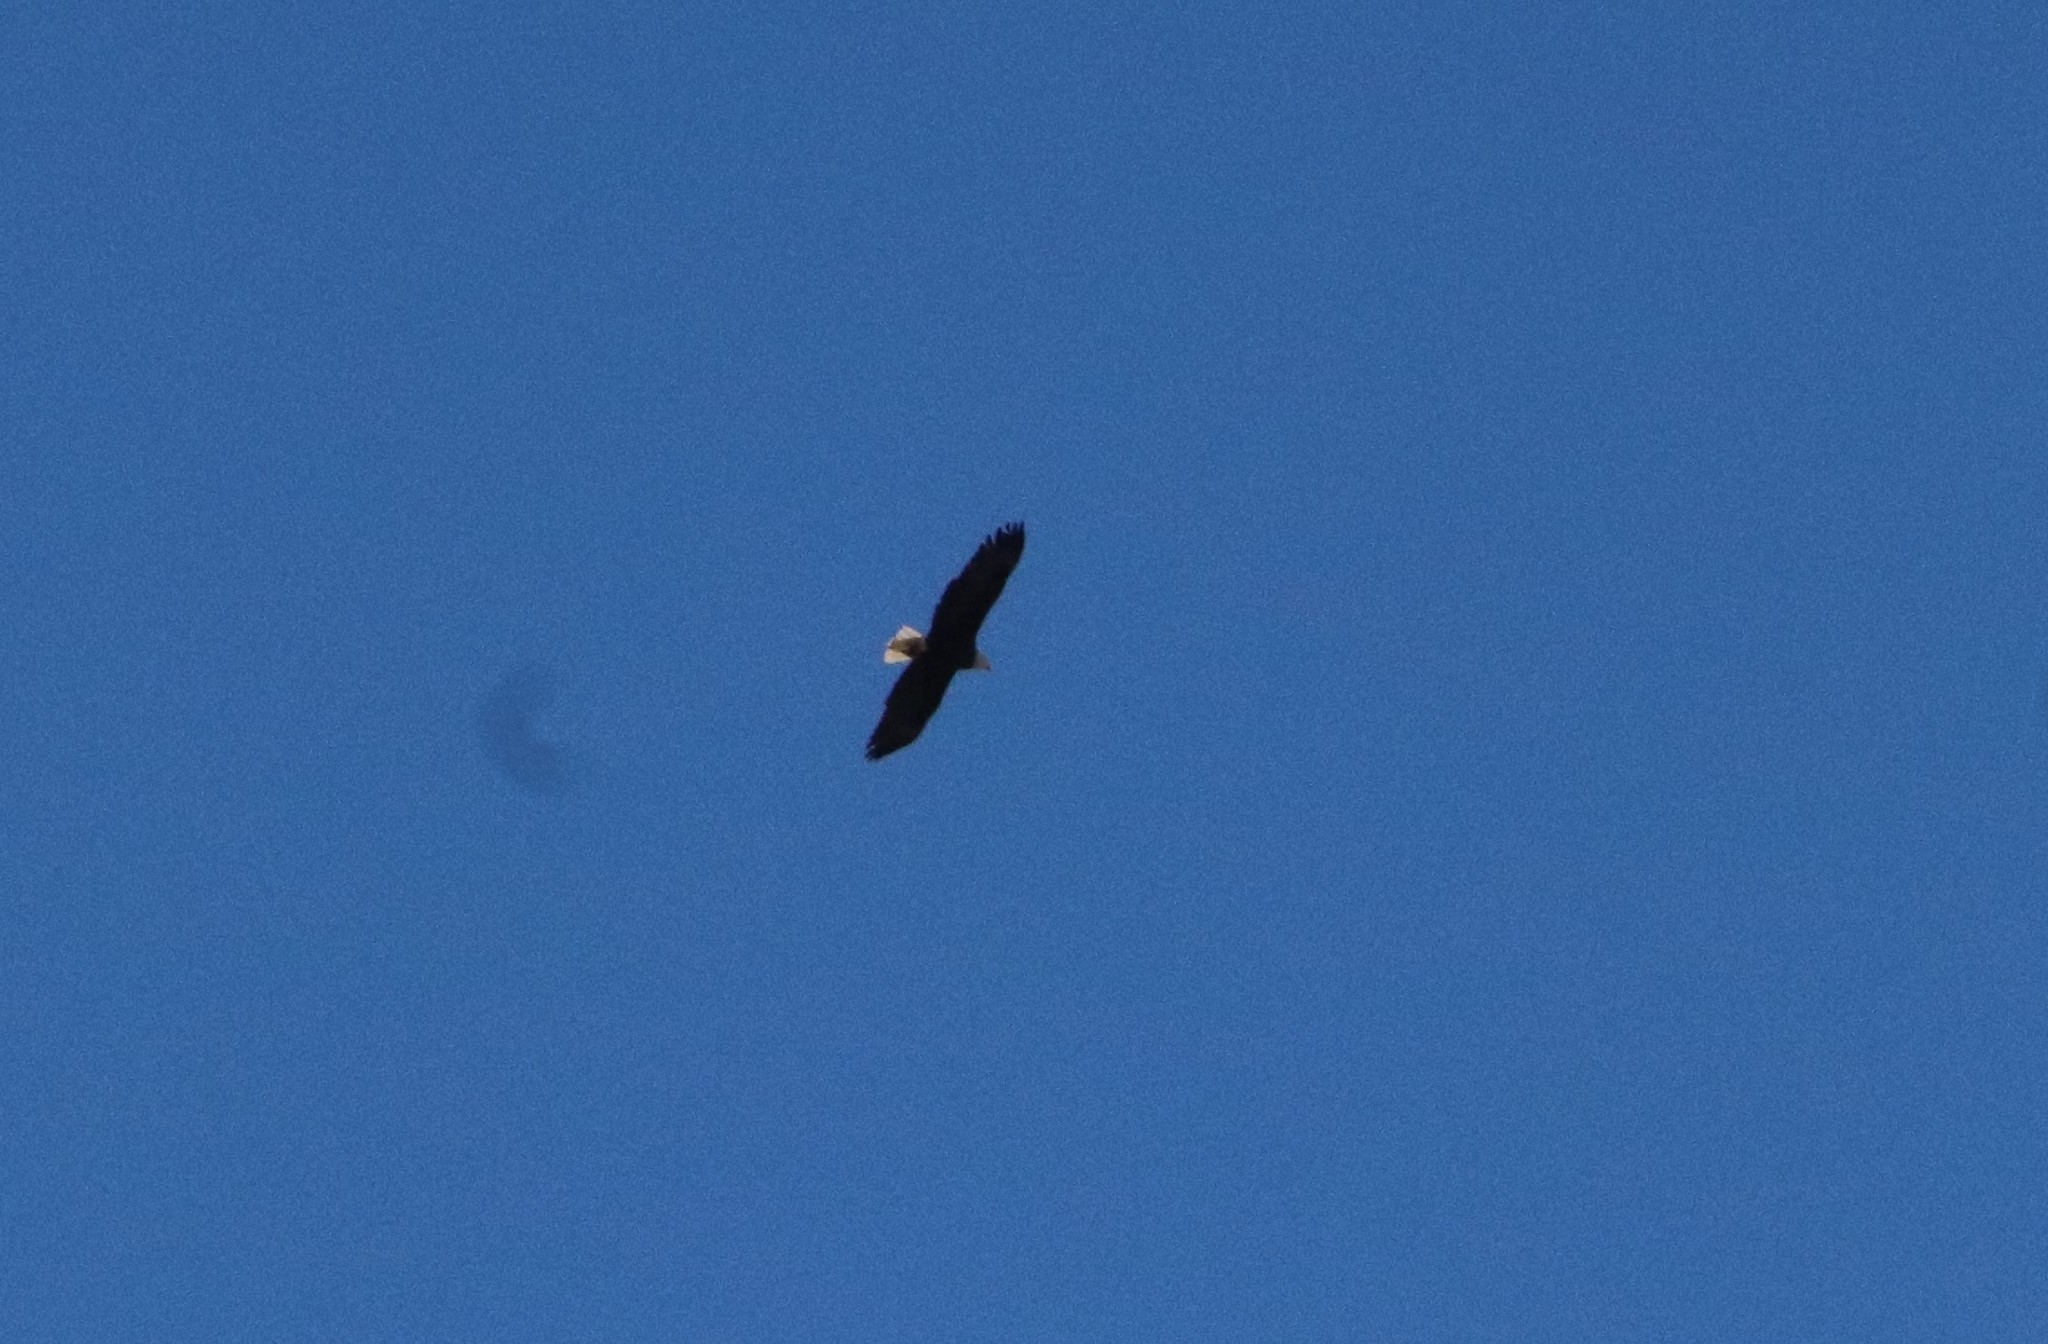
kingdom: Animalia
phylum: Chordata
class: Aves
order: Accipitriformes
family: Accipitridae
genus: Haliaeetus
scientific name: Haliaeetus leucocephalus
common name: Bald eagle
